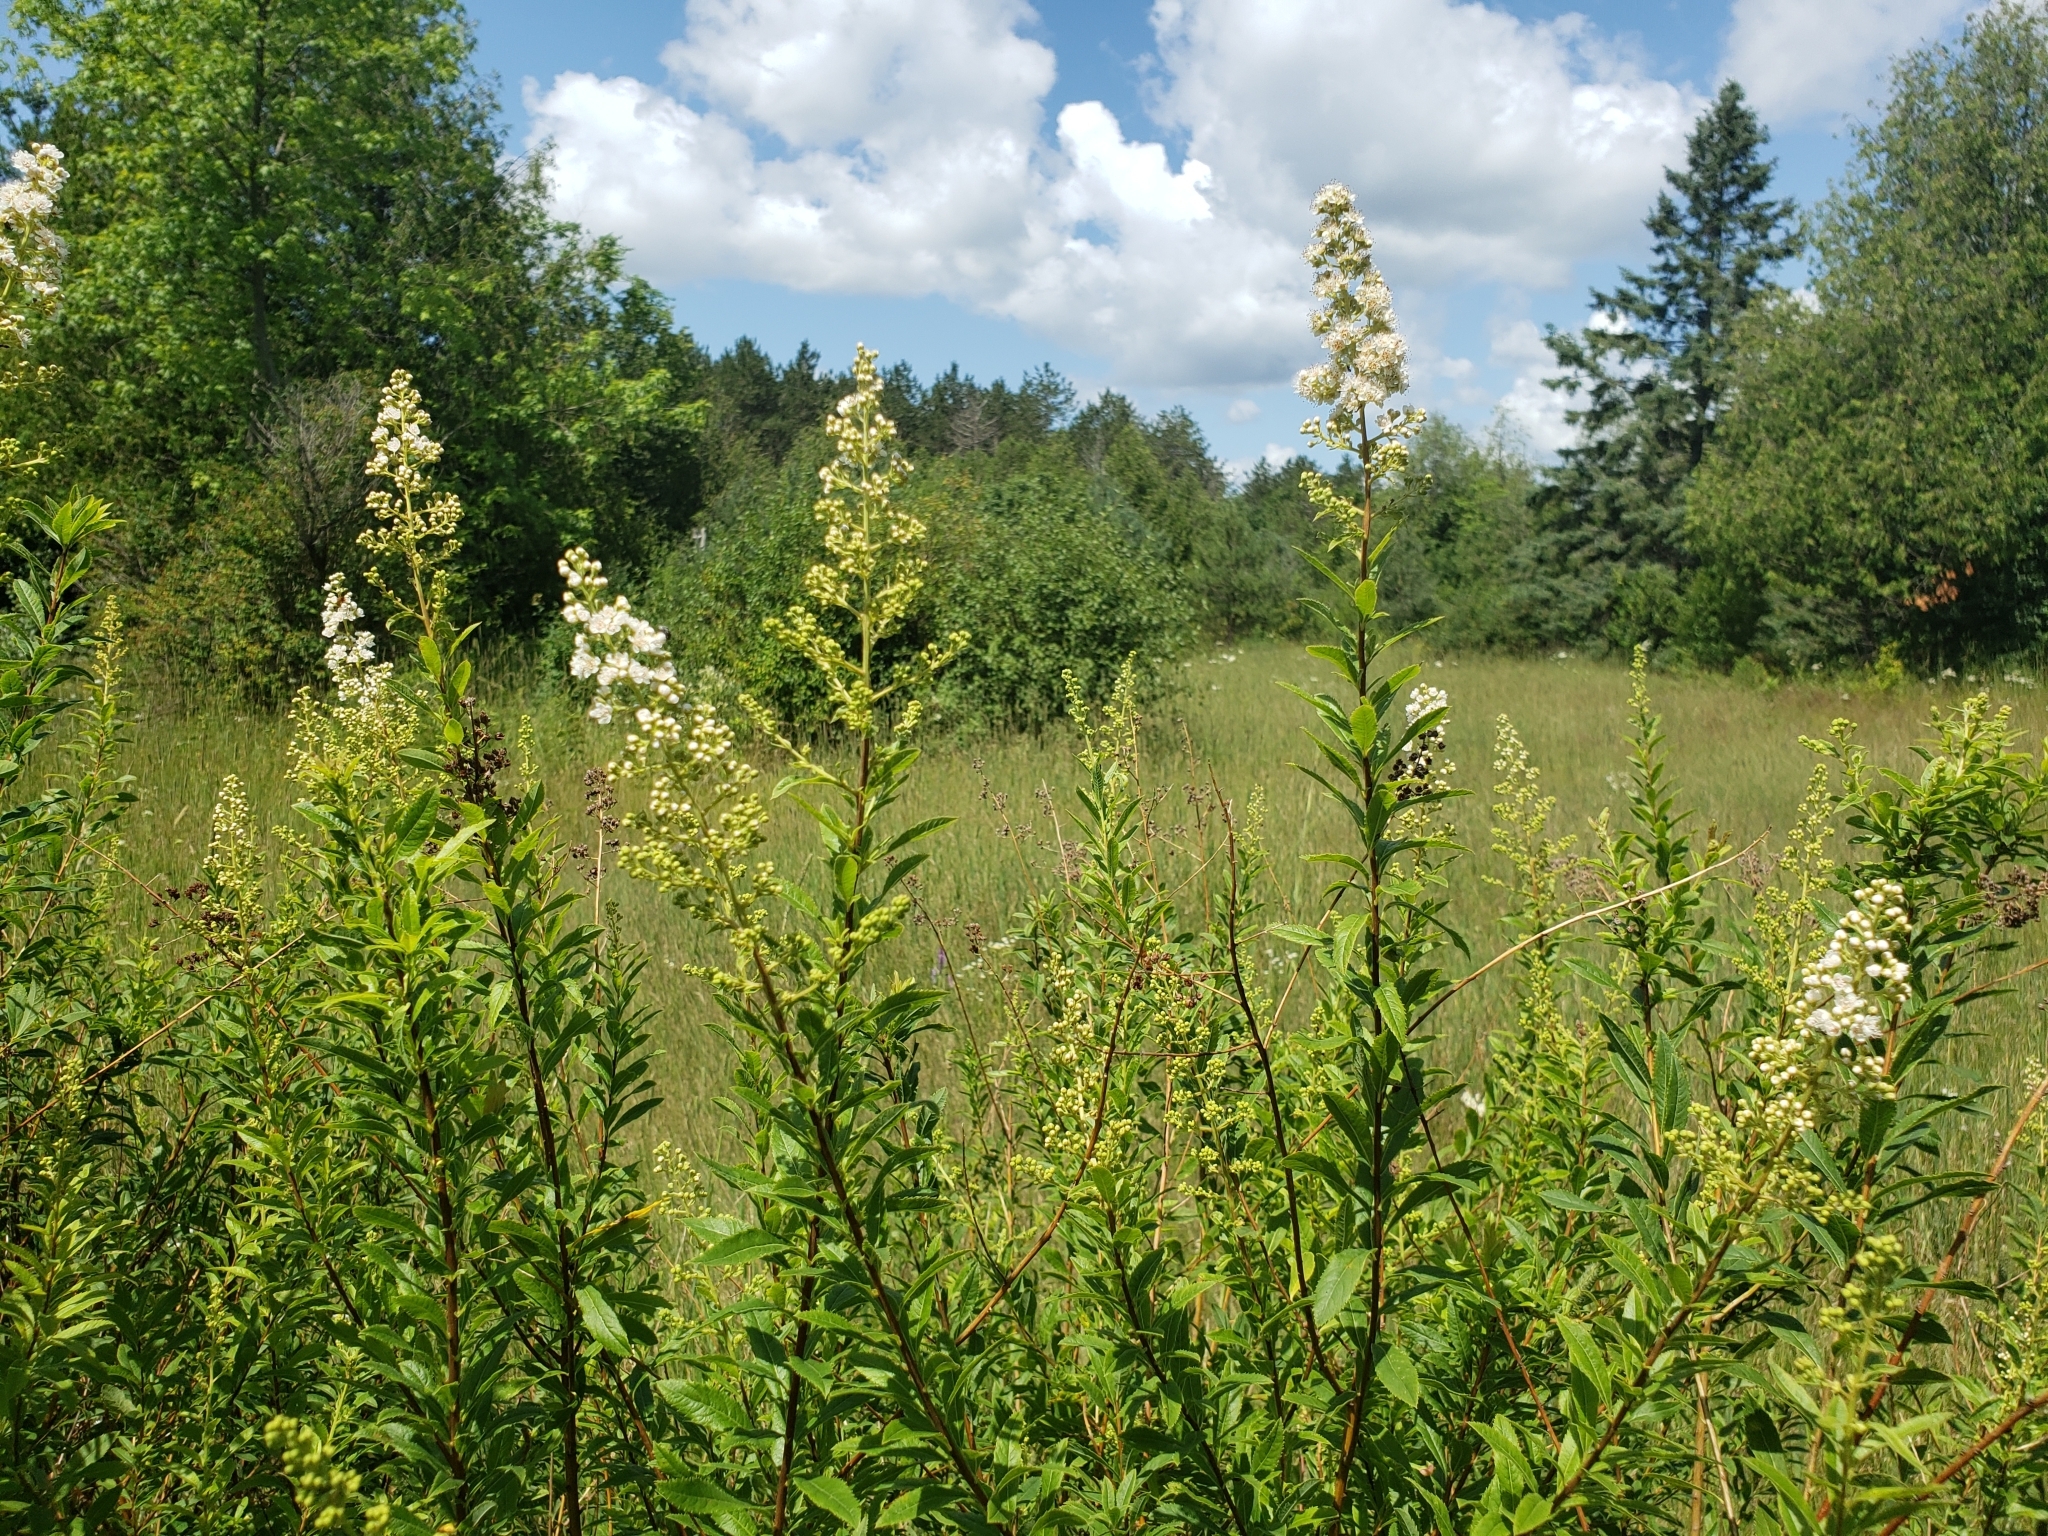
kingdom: Plantae
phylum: Tracheophyta
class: Magnoliopsida
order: Rosales
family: Rosaceae
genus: Spiraea
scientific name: Spiraea alba
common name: Pale bridewort
